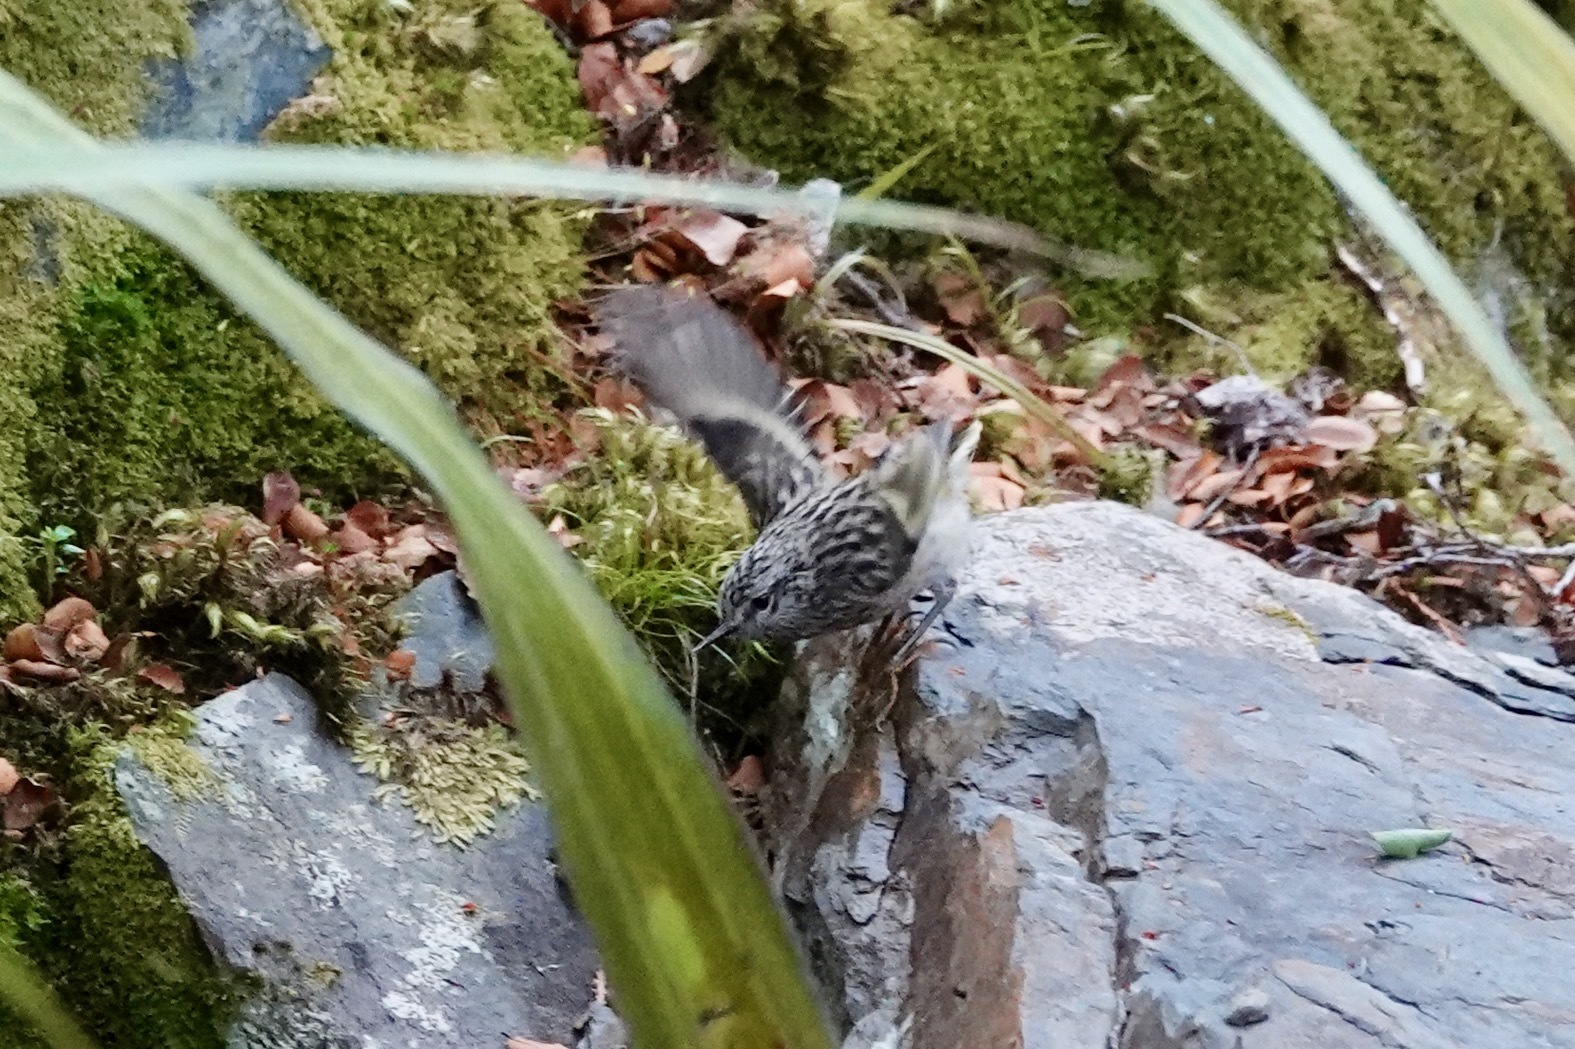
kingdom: Animalia
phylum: Chordata
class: Aves
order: Passeriformes
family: Acanthisittidae
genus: Acanthisitta
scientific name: Acanthisitta chloris
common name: Rifleman
